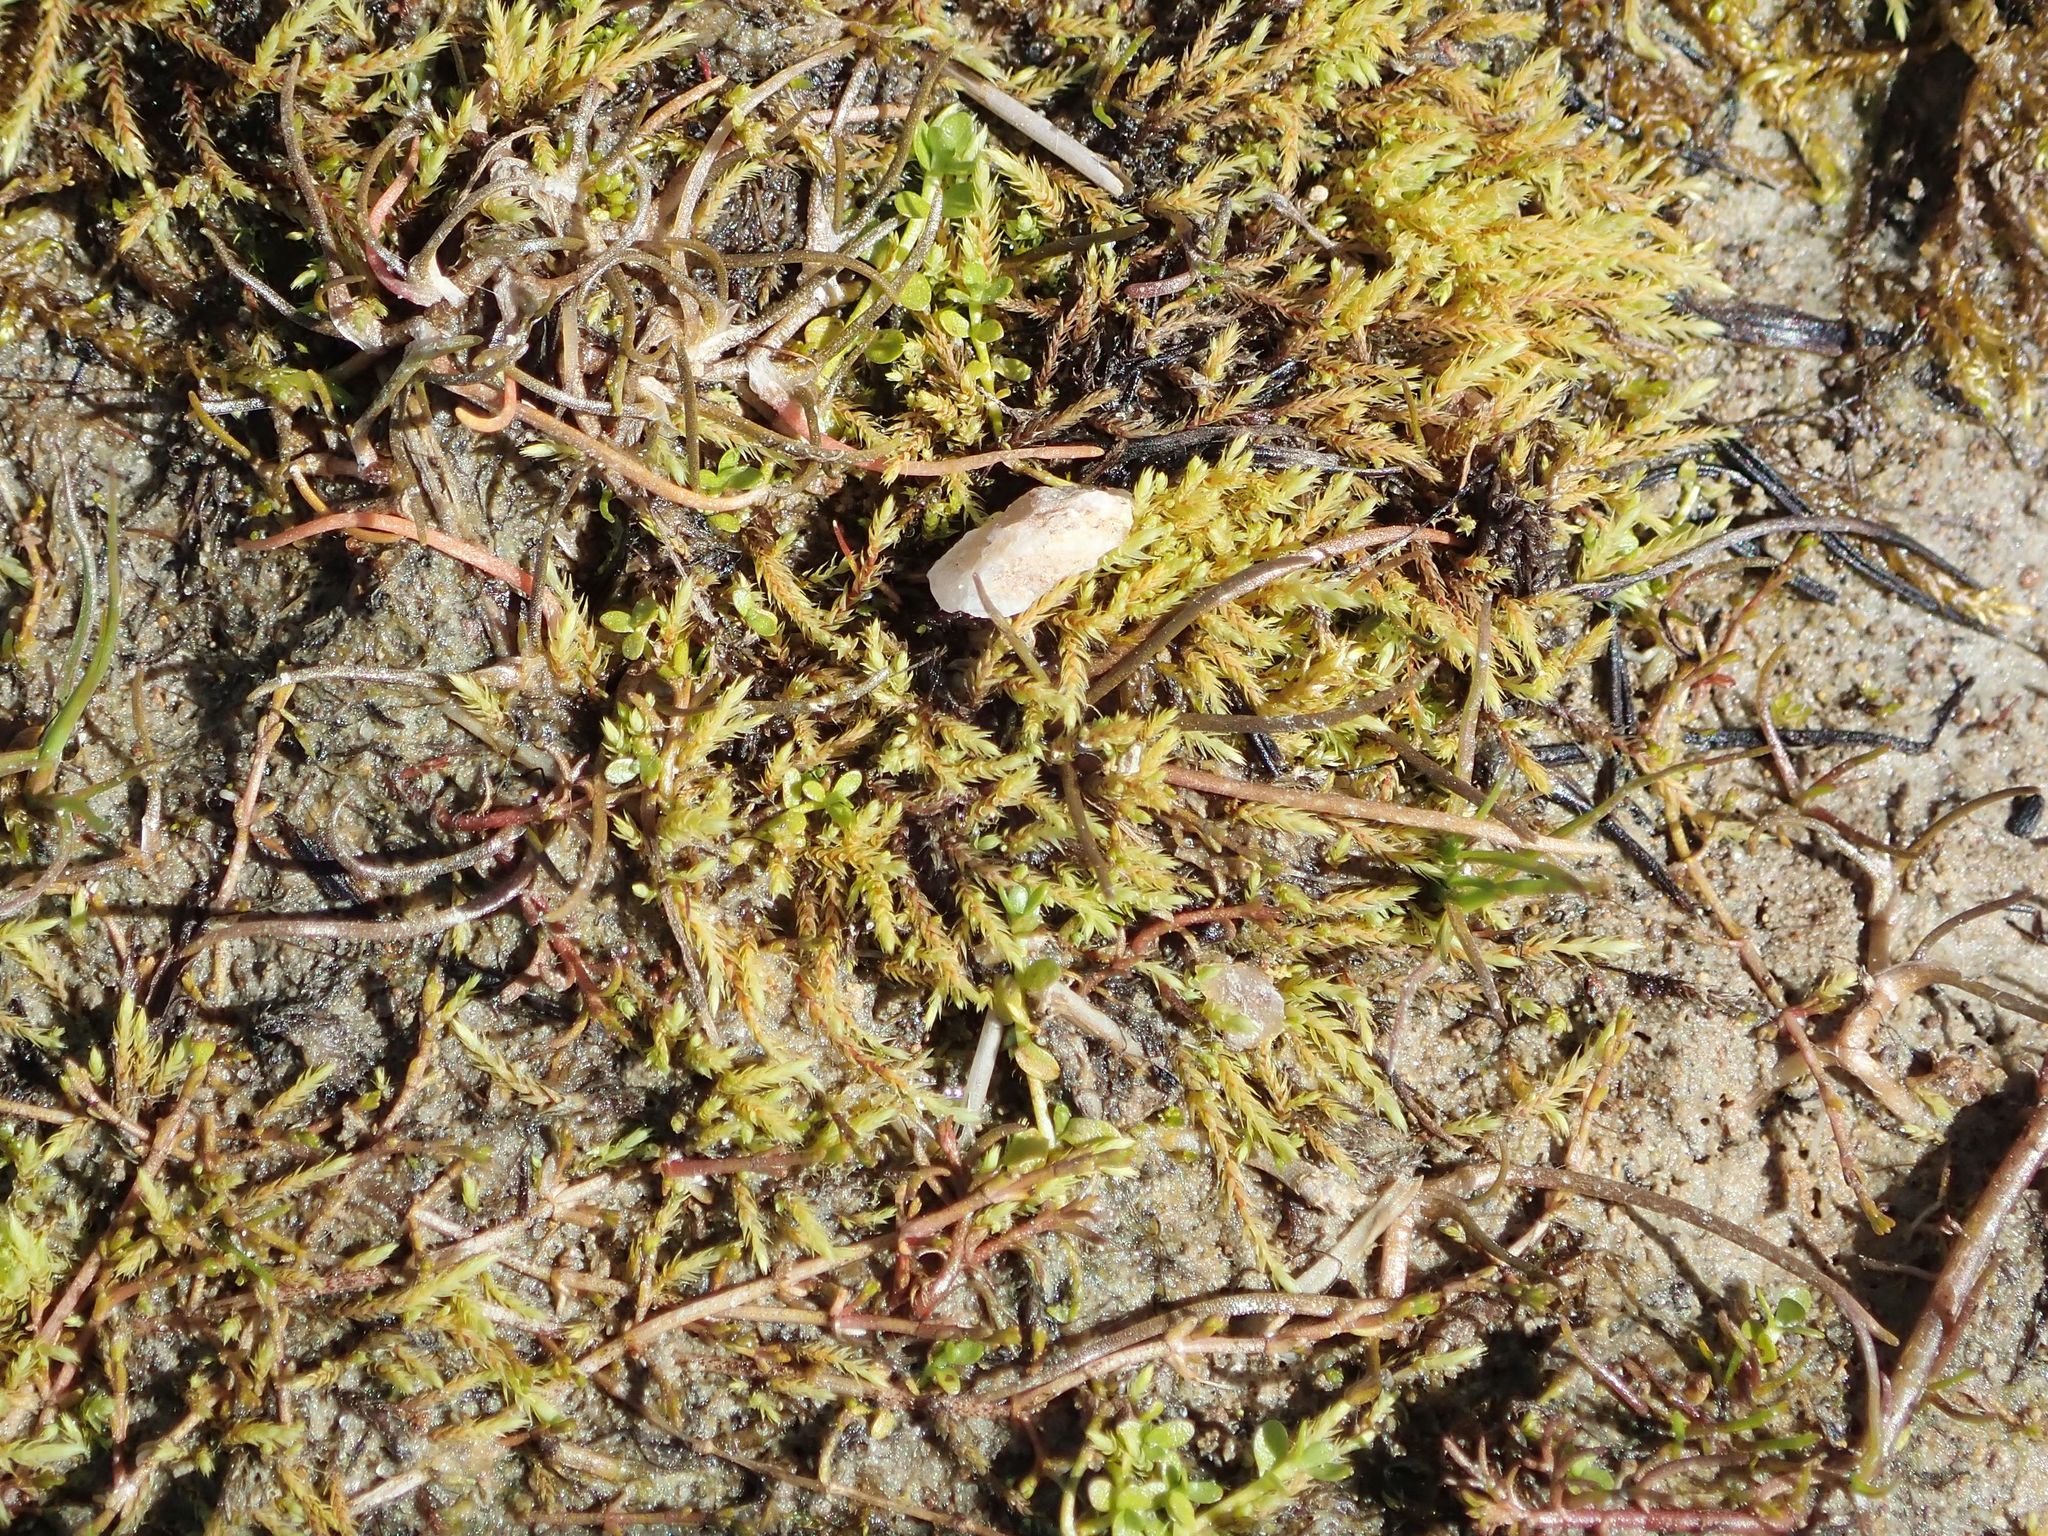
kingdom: Plantae
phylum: Tracheophyta
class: Magnoliopsida
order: Lamiales
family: Scrophulariaceae
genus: Limosella
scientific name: Limosella australis
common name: Welsh mudwort
